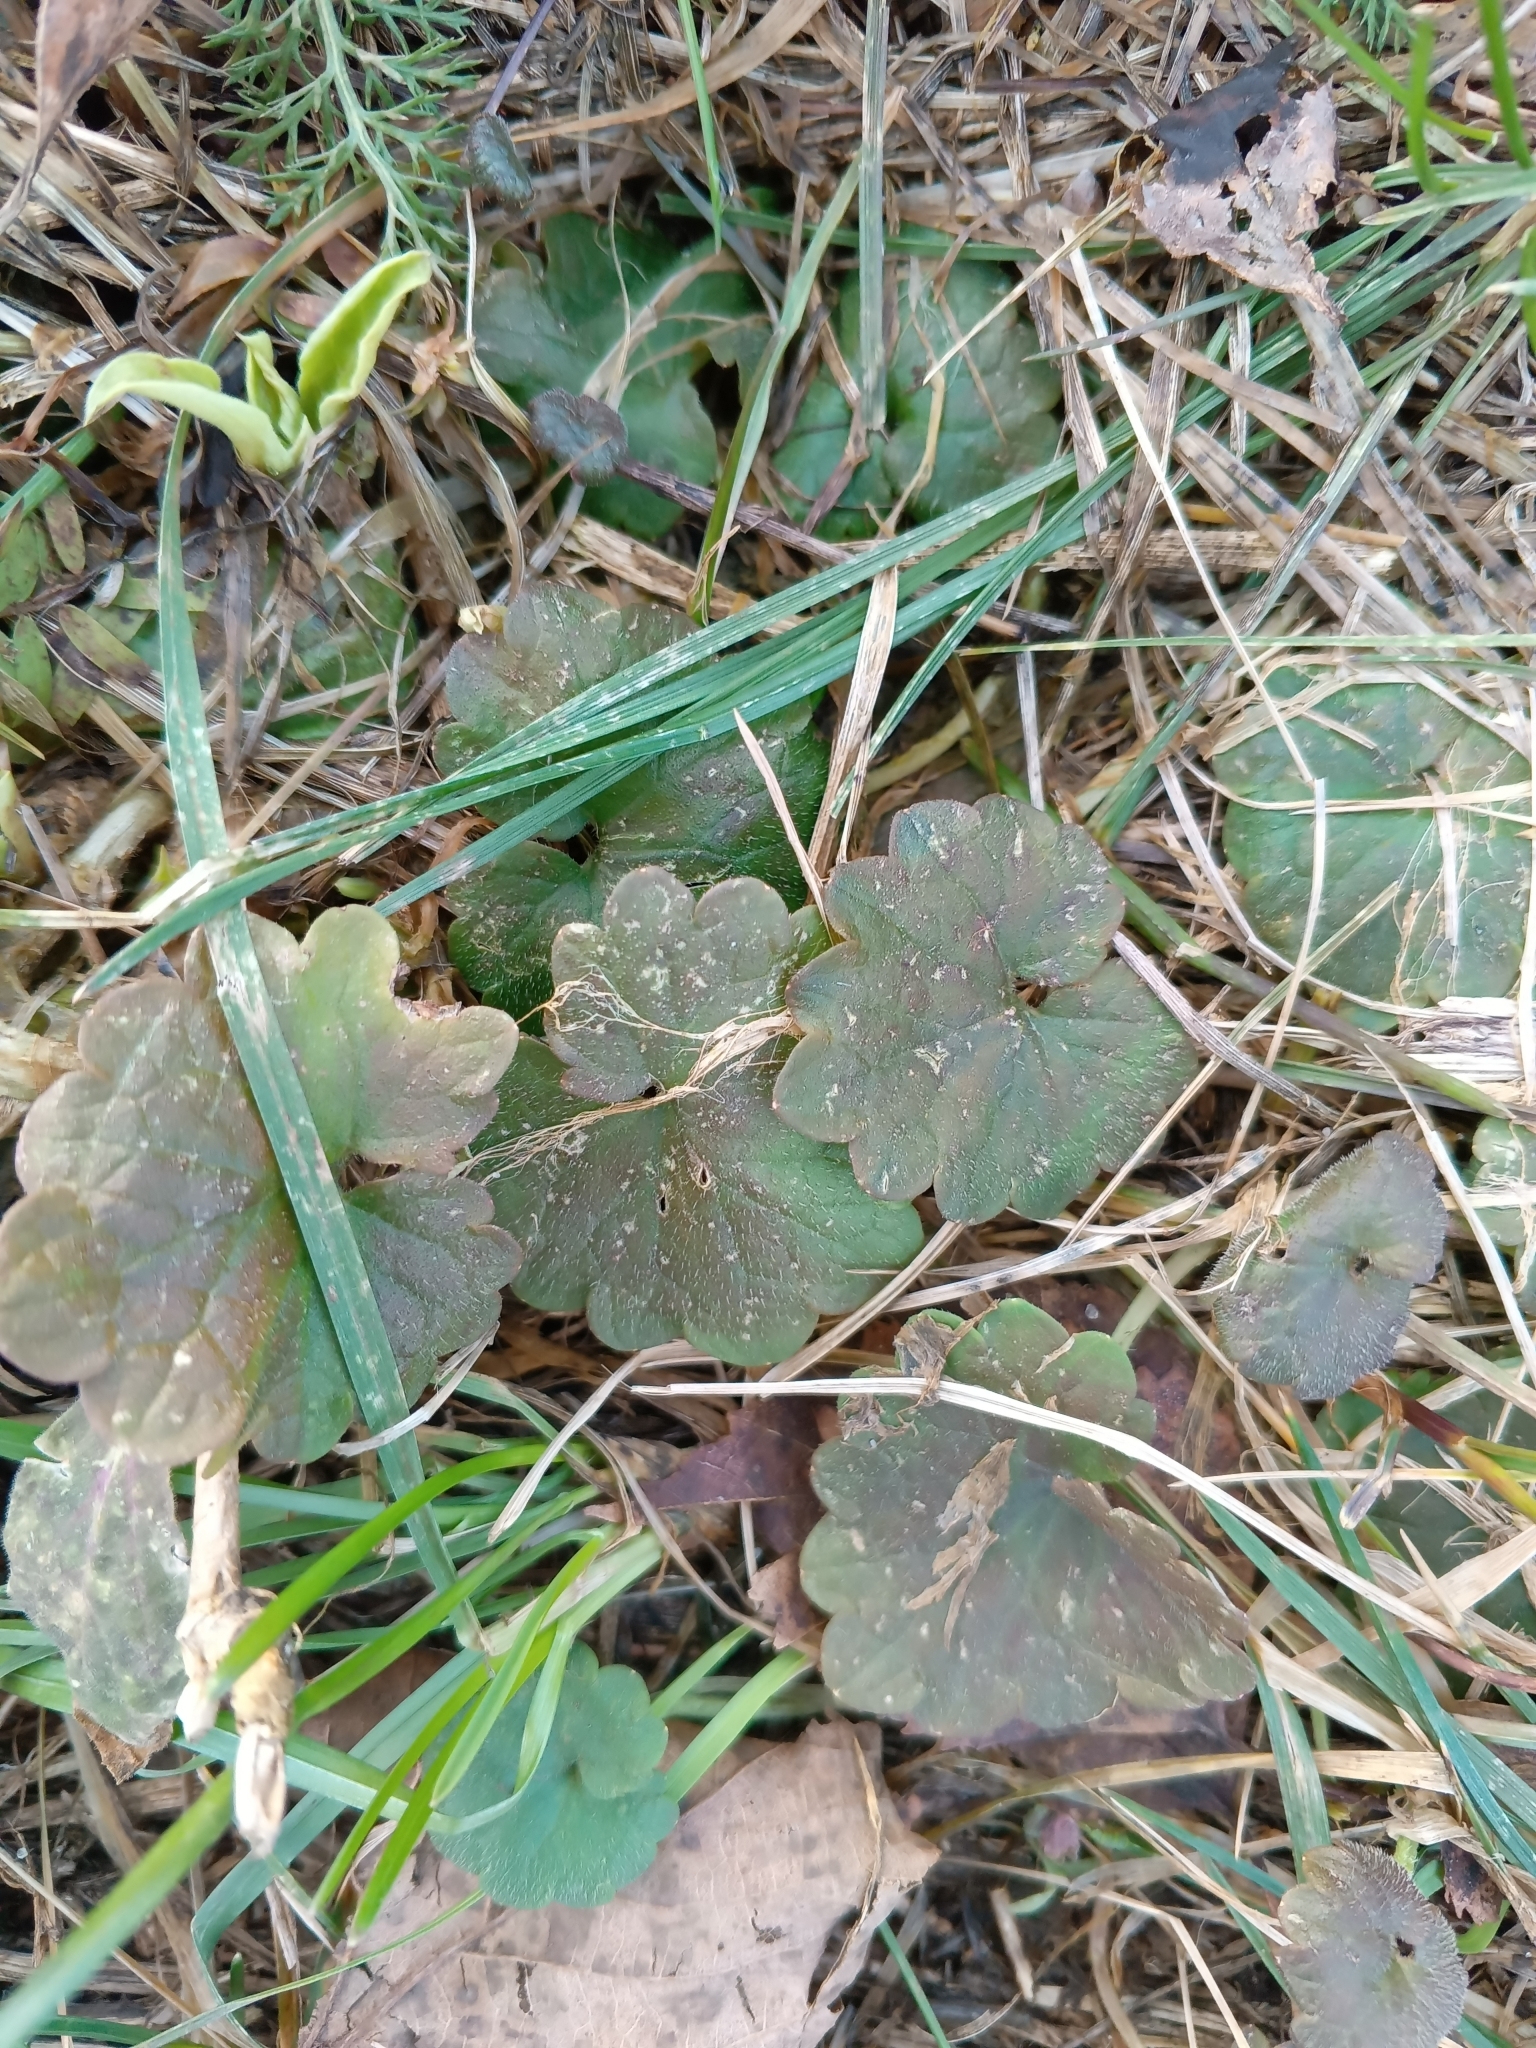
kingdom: Plantae
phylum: Tracheophyta
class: Magnoliopsida
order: Lamiales
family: Lamiaceae
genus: Glechoma
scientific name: Glechoma hederacea
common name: Ground ivy
